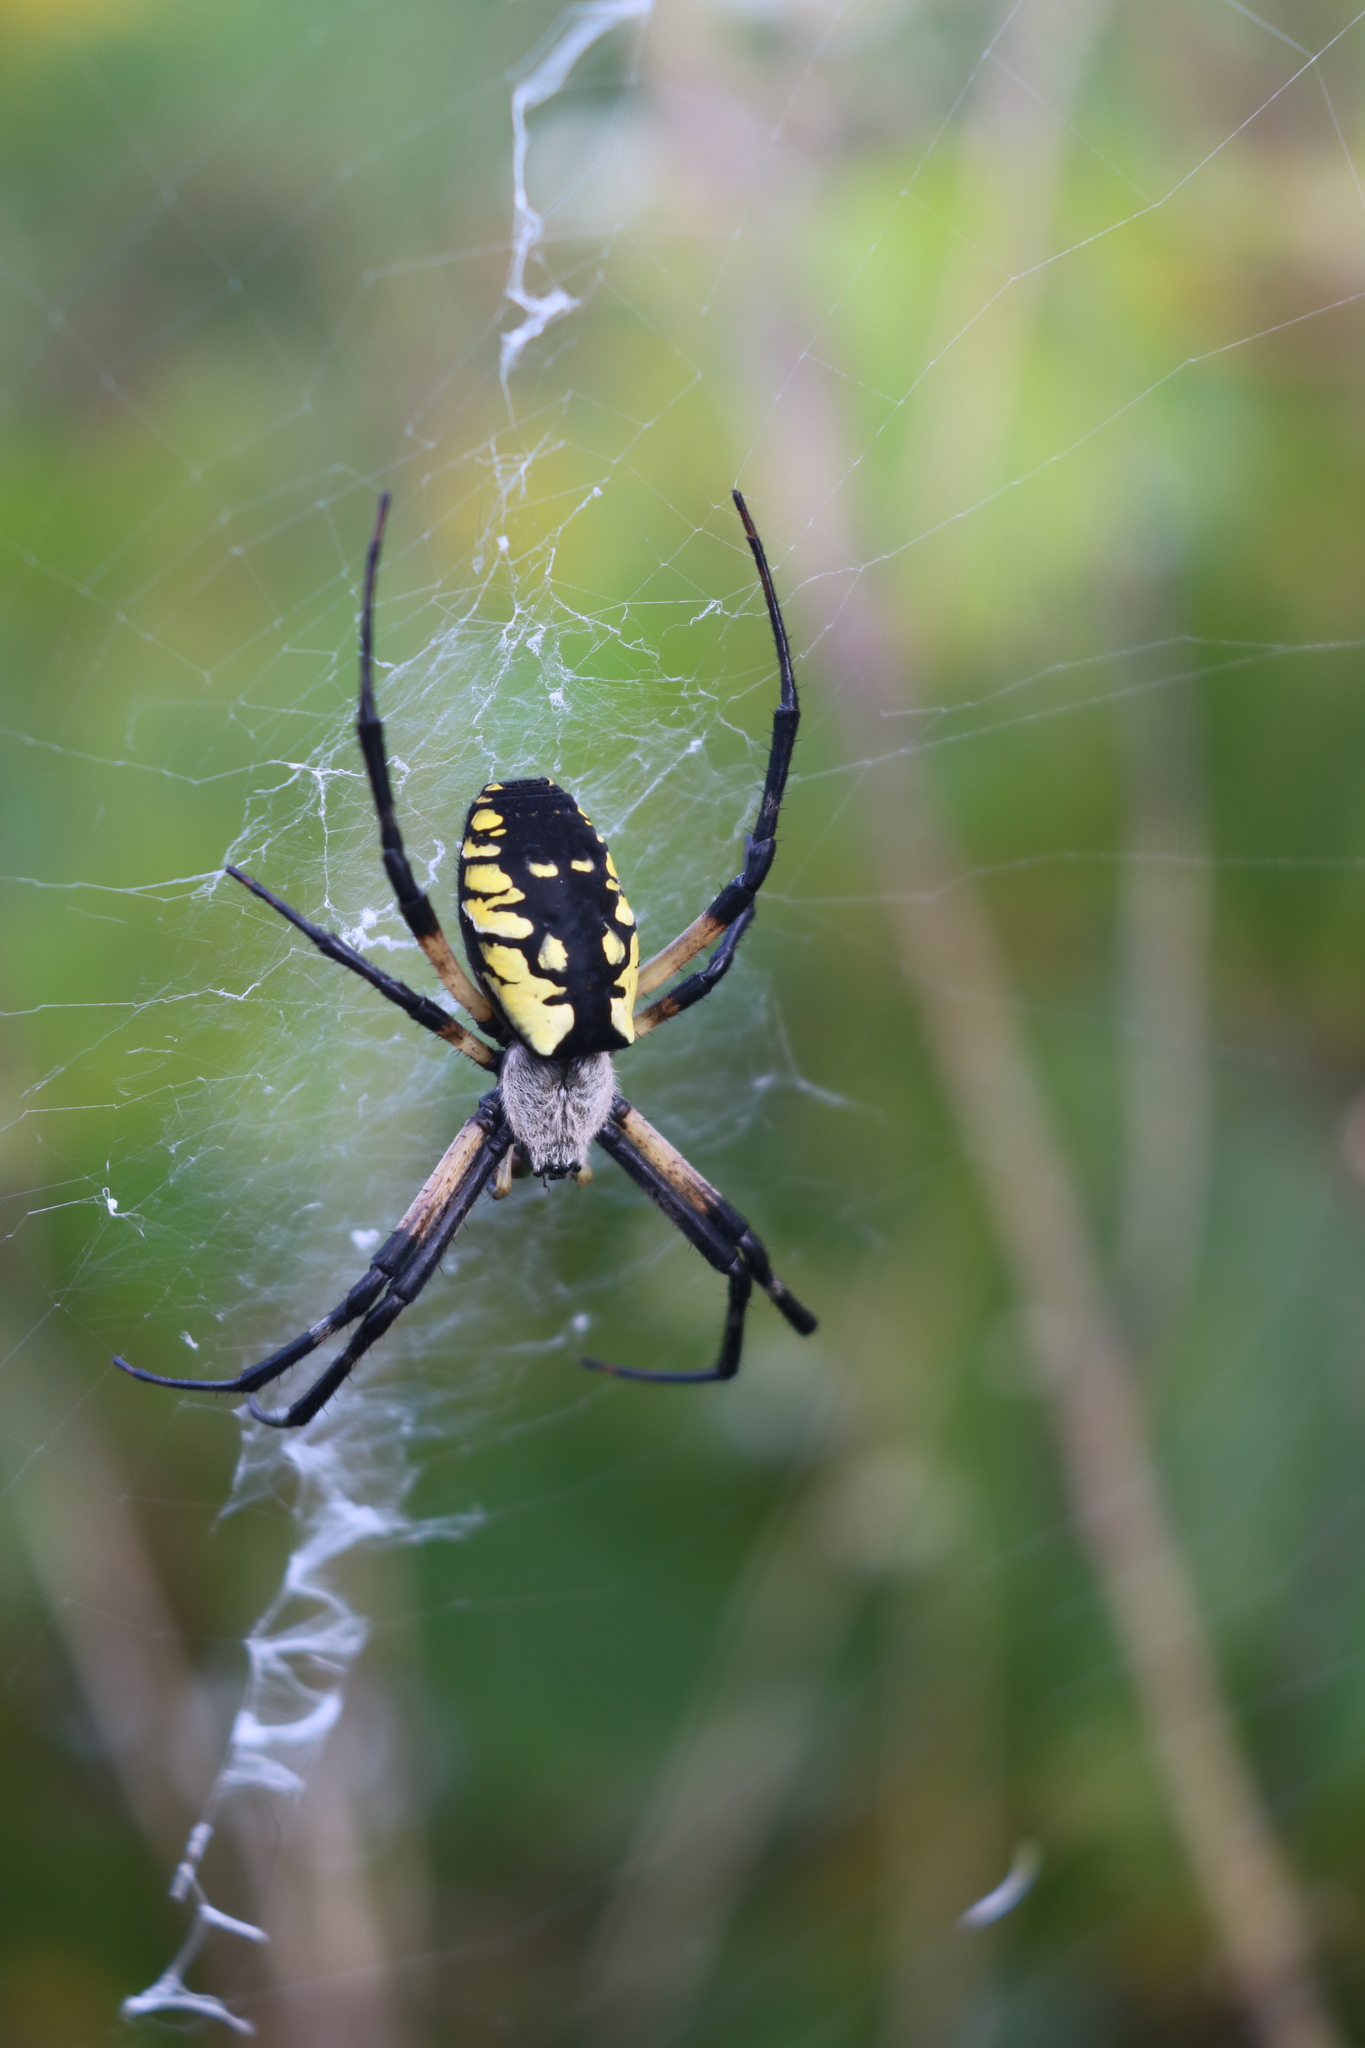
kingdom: Animalia
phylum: Arthropoda
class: Arachnida
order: Araneae
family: Araneidae
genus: Argiope
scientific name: Argiope aurantia
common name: Orb weavers
